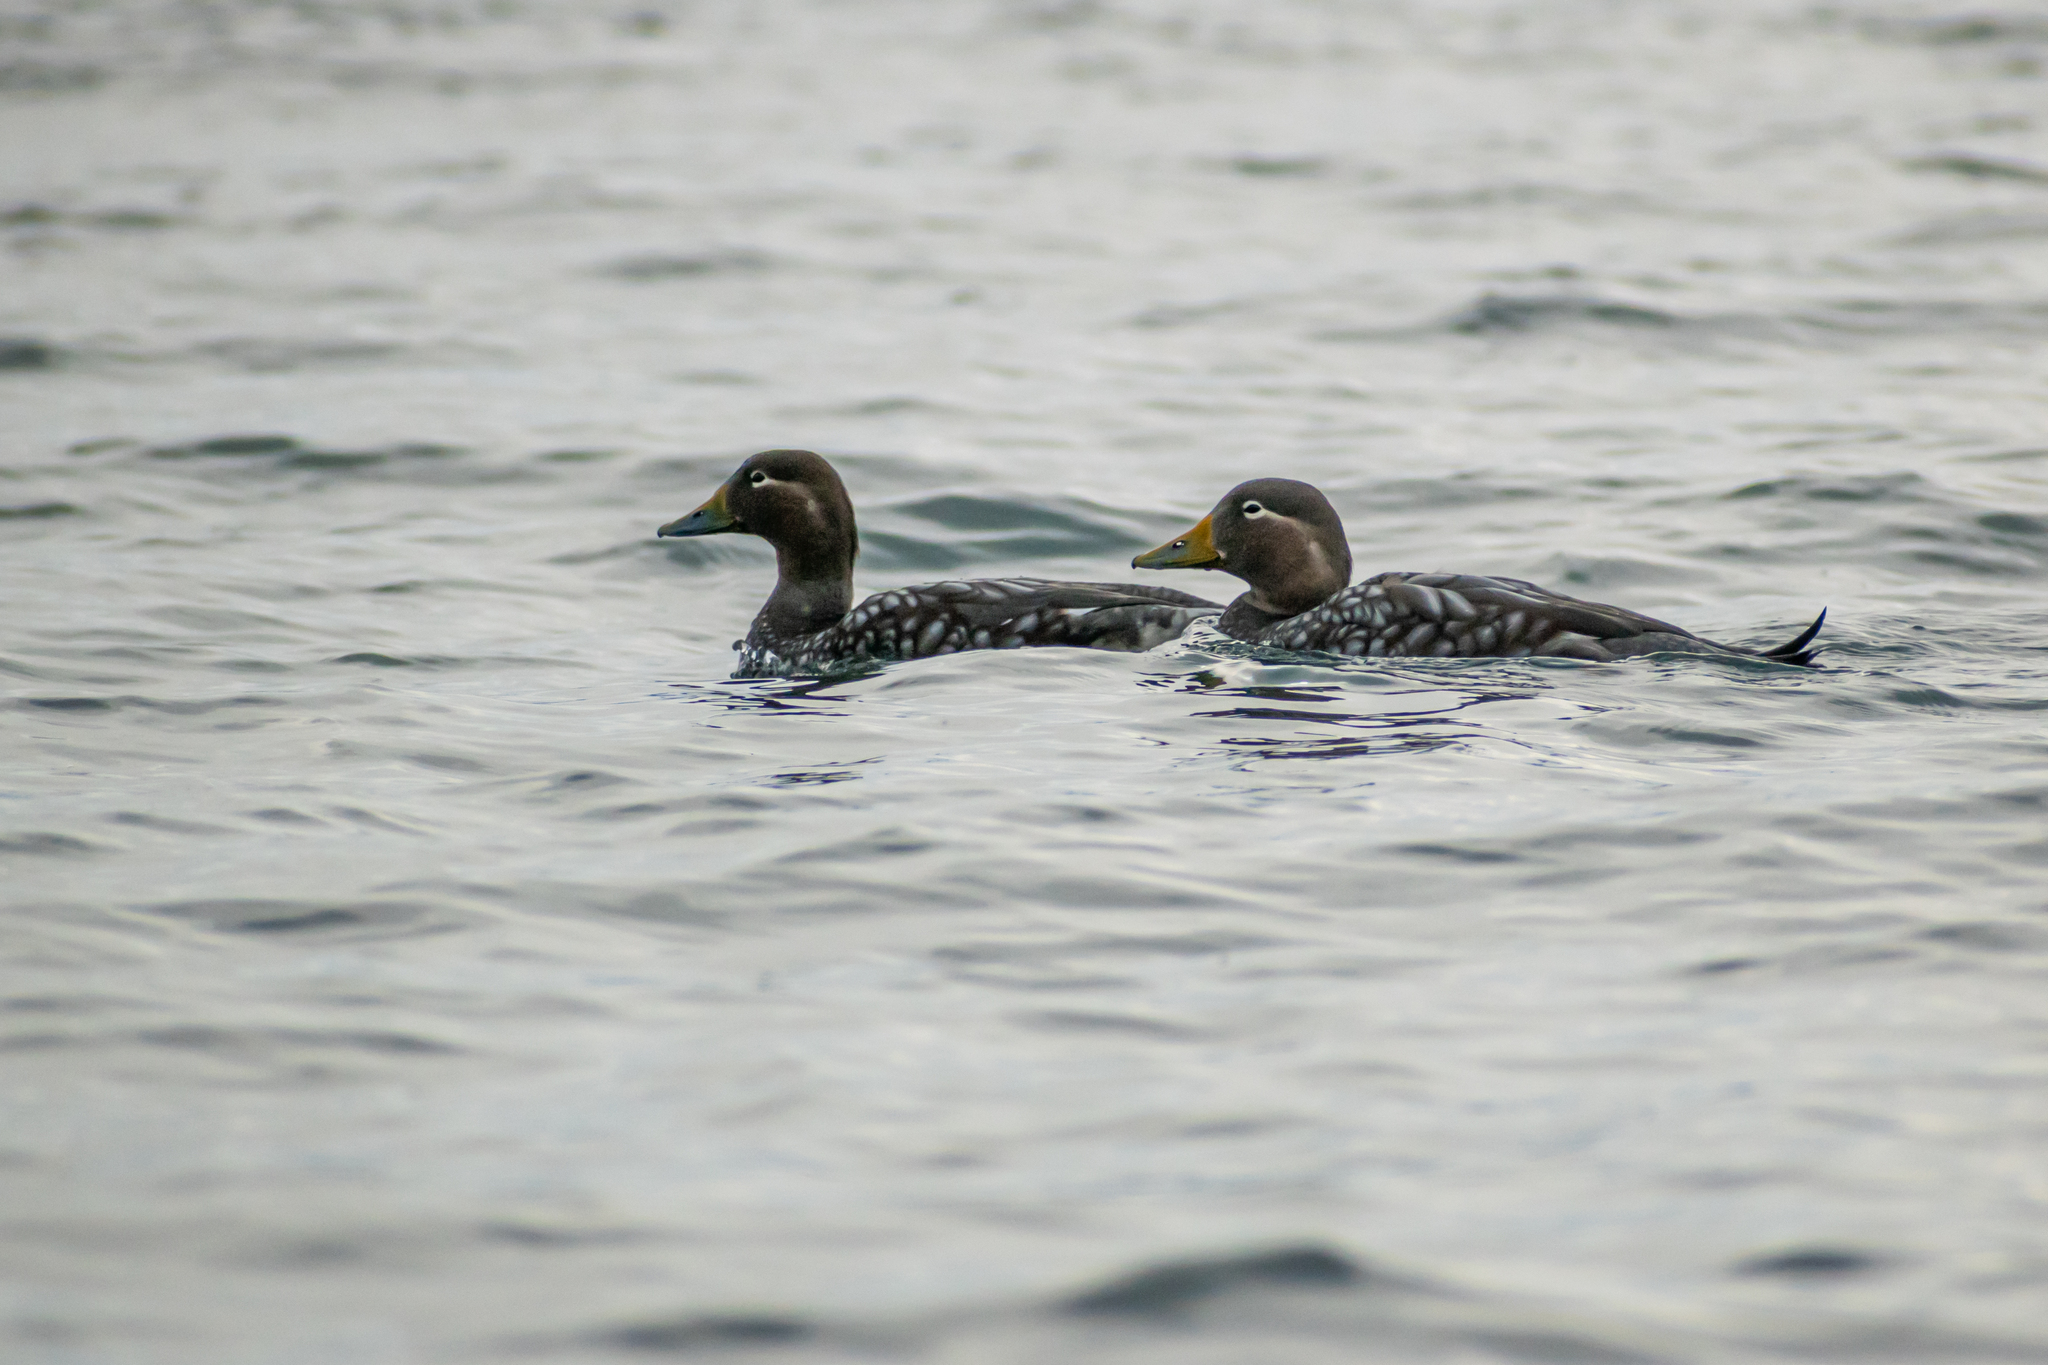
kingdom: Animalia
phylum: Chordata
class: Aves
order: Anseriformes
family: Anatidae
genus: Tachyeres
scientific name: Tachyeres patachonicus
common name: Flying steamer duck
